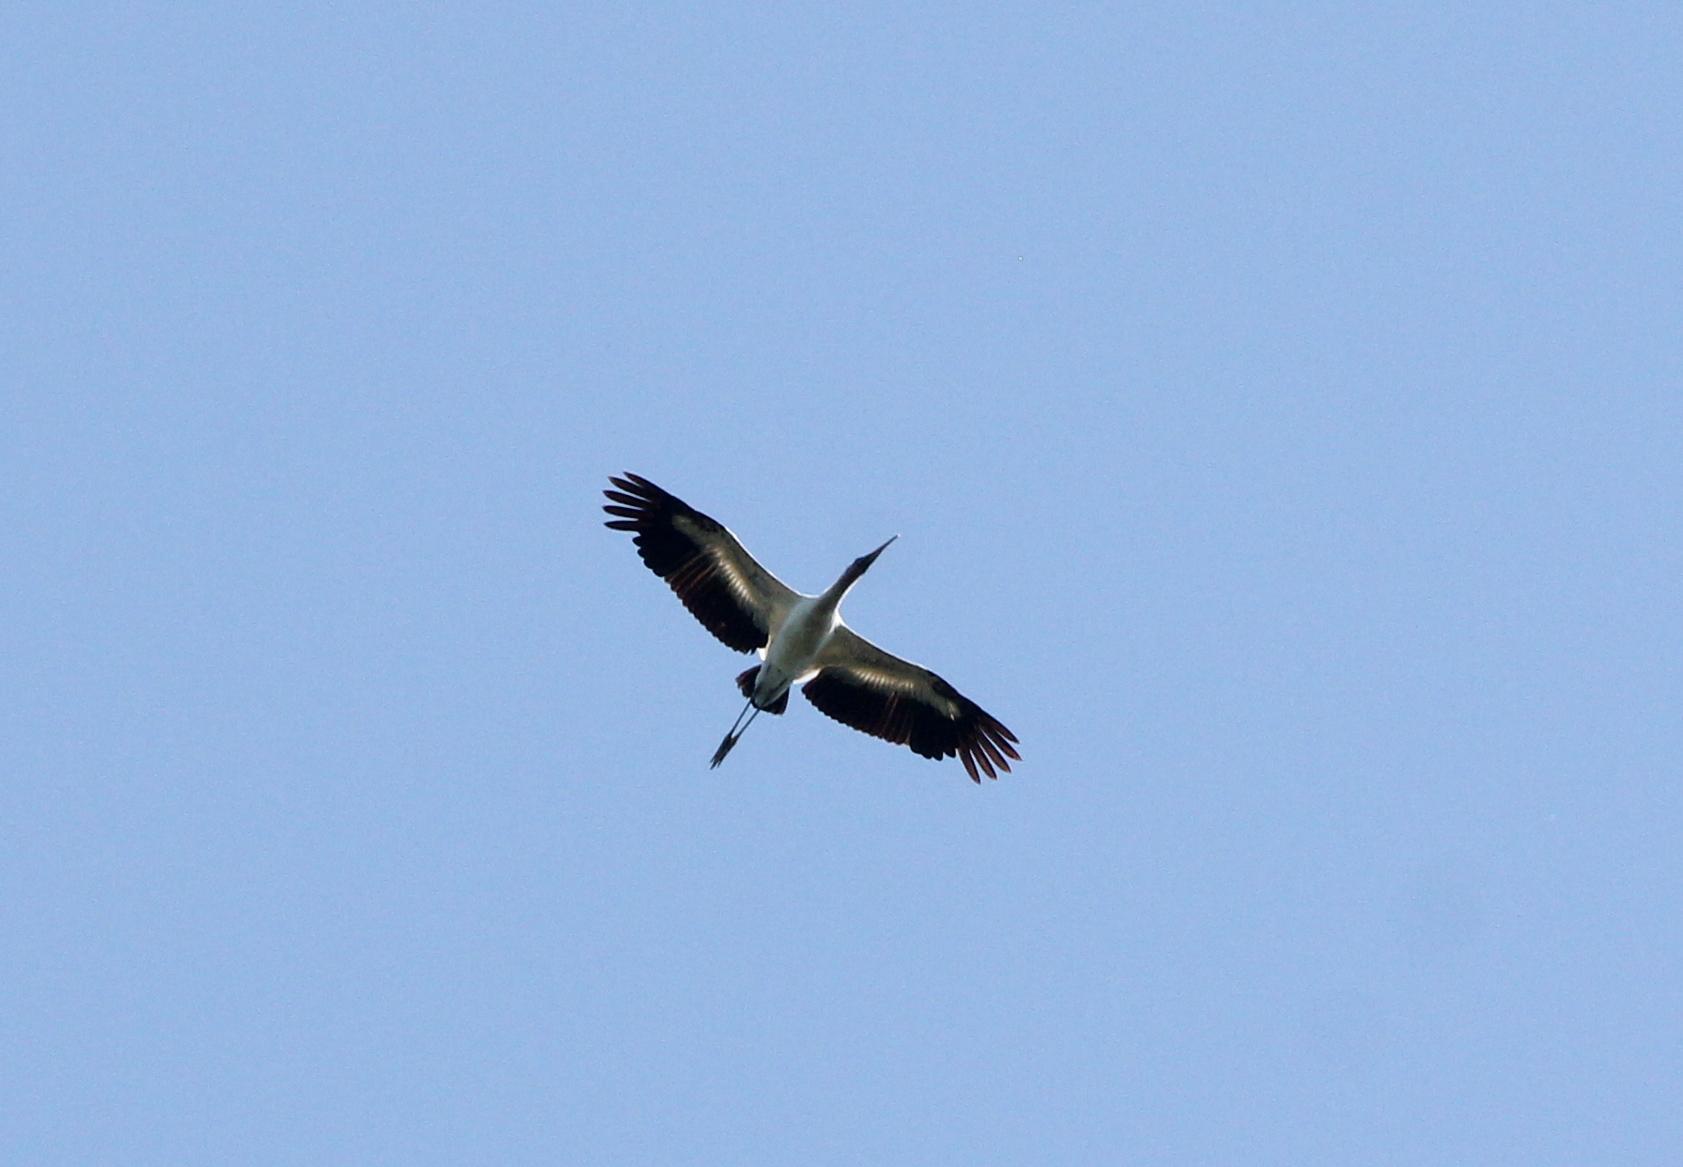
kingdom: Animalia
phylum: Chordata
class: Aves
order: Ciconiiformes
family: Ciconiidae
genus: Mycteria
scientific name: Mycteria americana
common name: Wood stork
